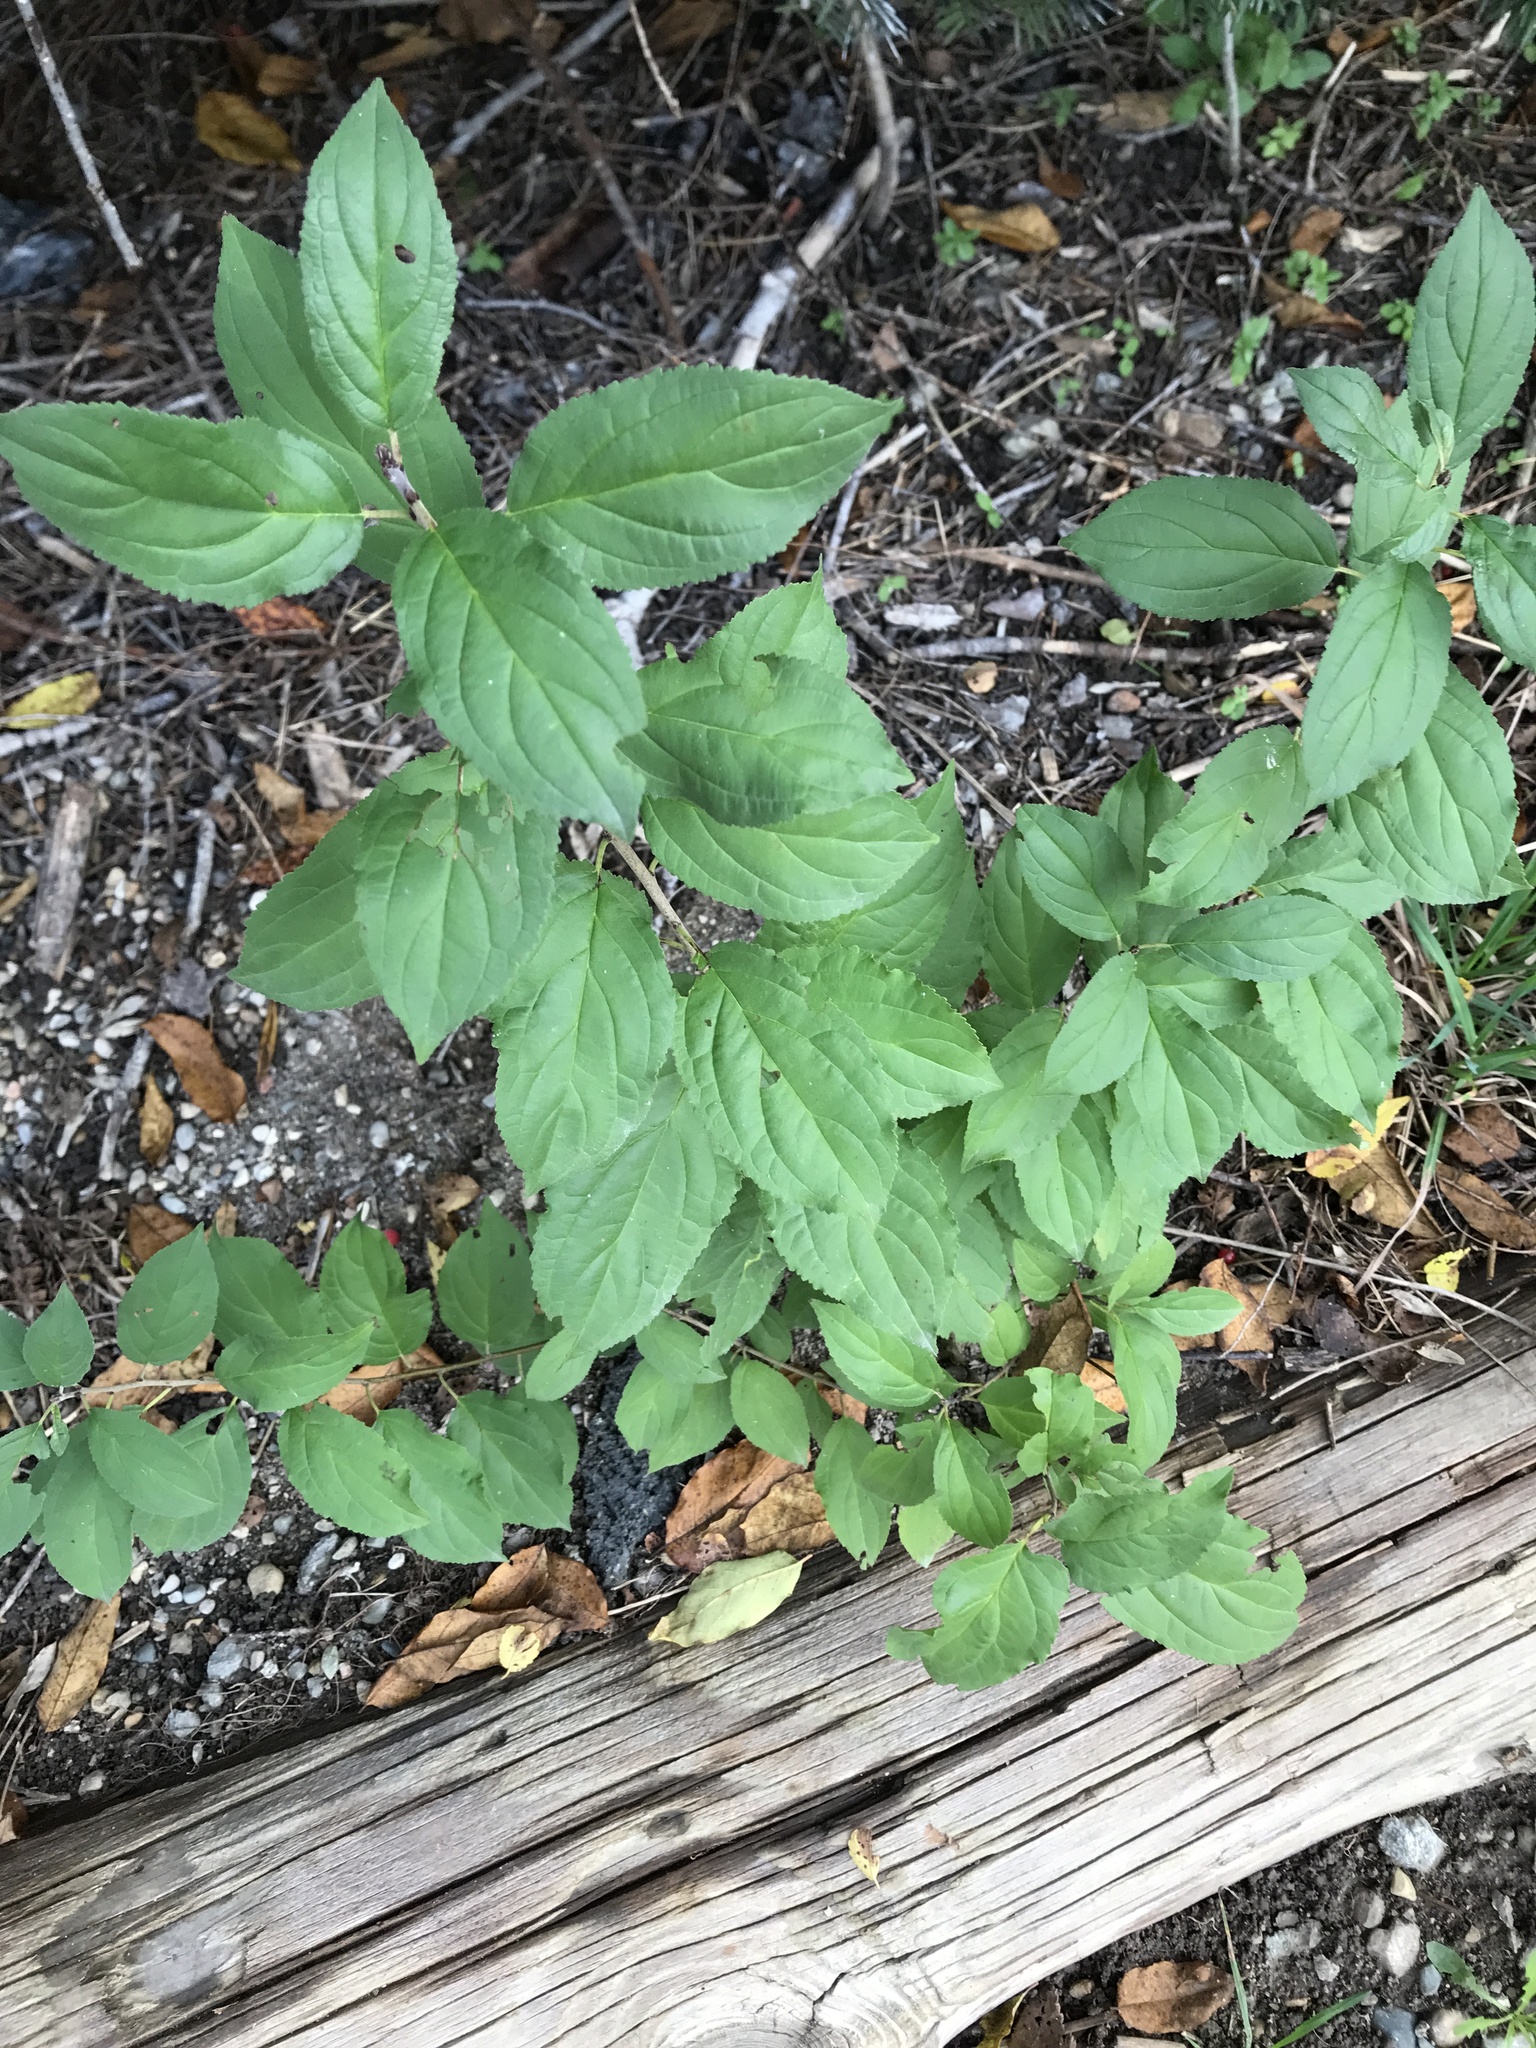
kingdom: Plantae
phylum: Tracheophyta
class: Magnoliopsida
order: Rosales
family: Rhamnaceae
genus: Rhamnus
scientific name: Rhamnus cathartica
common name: Common buckthorn
